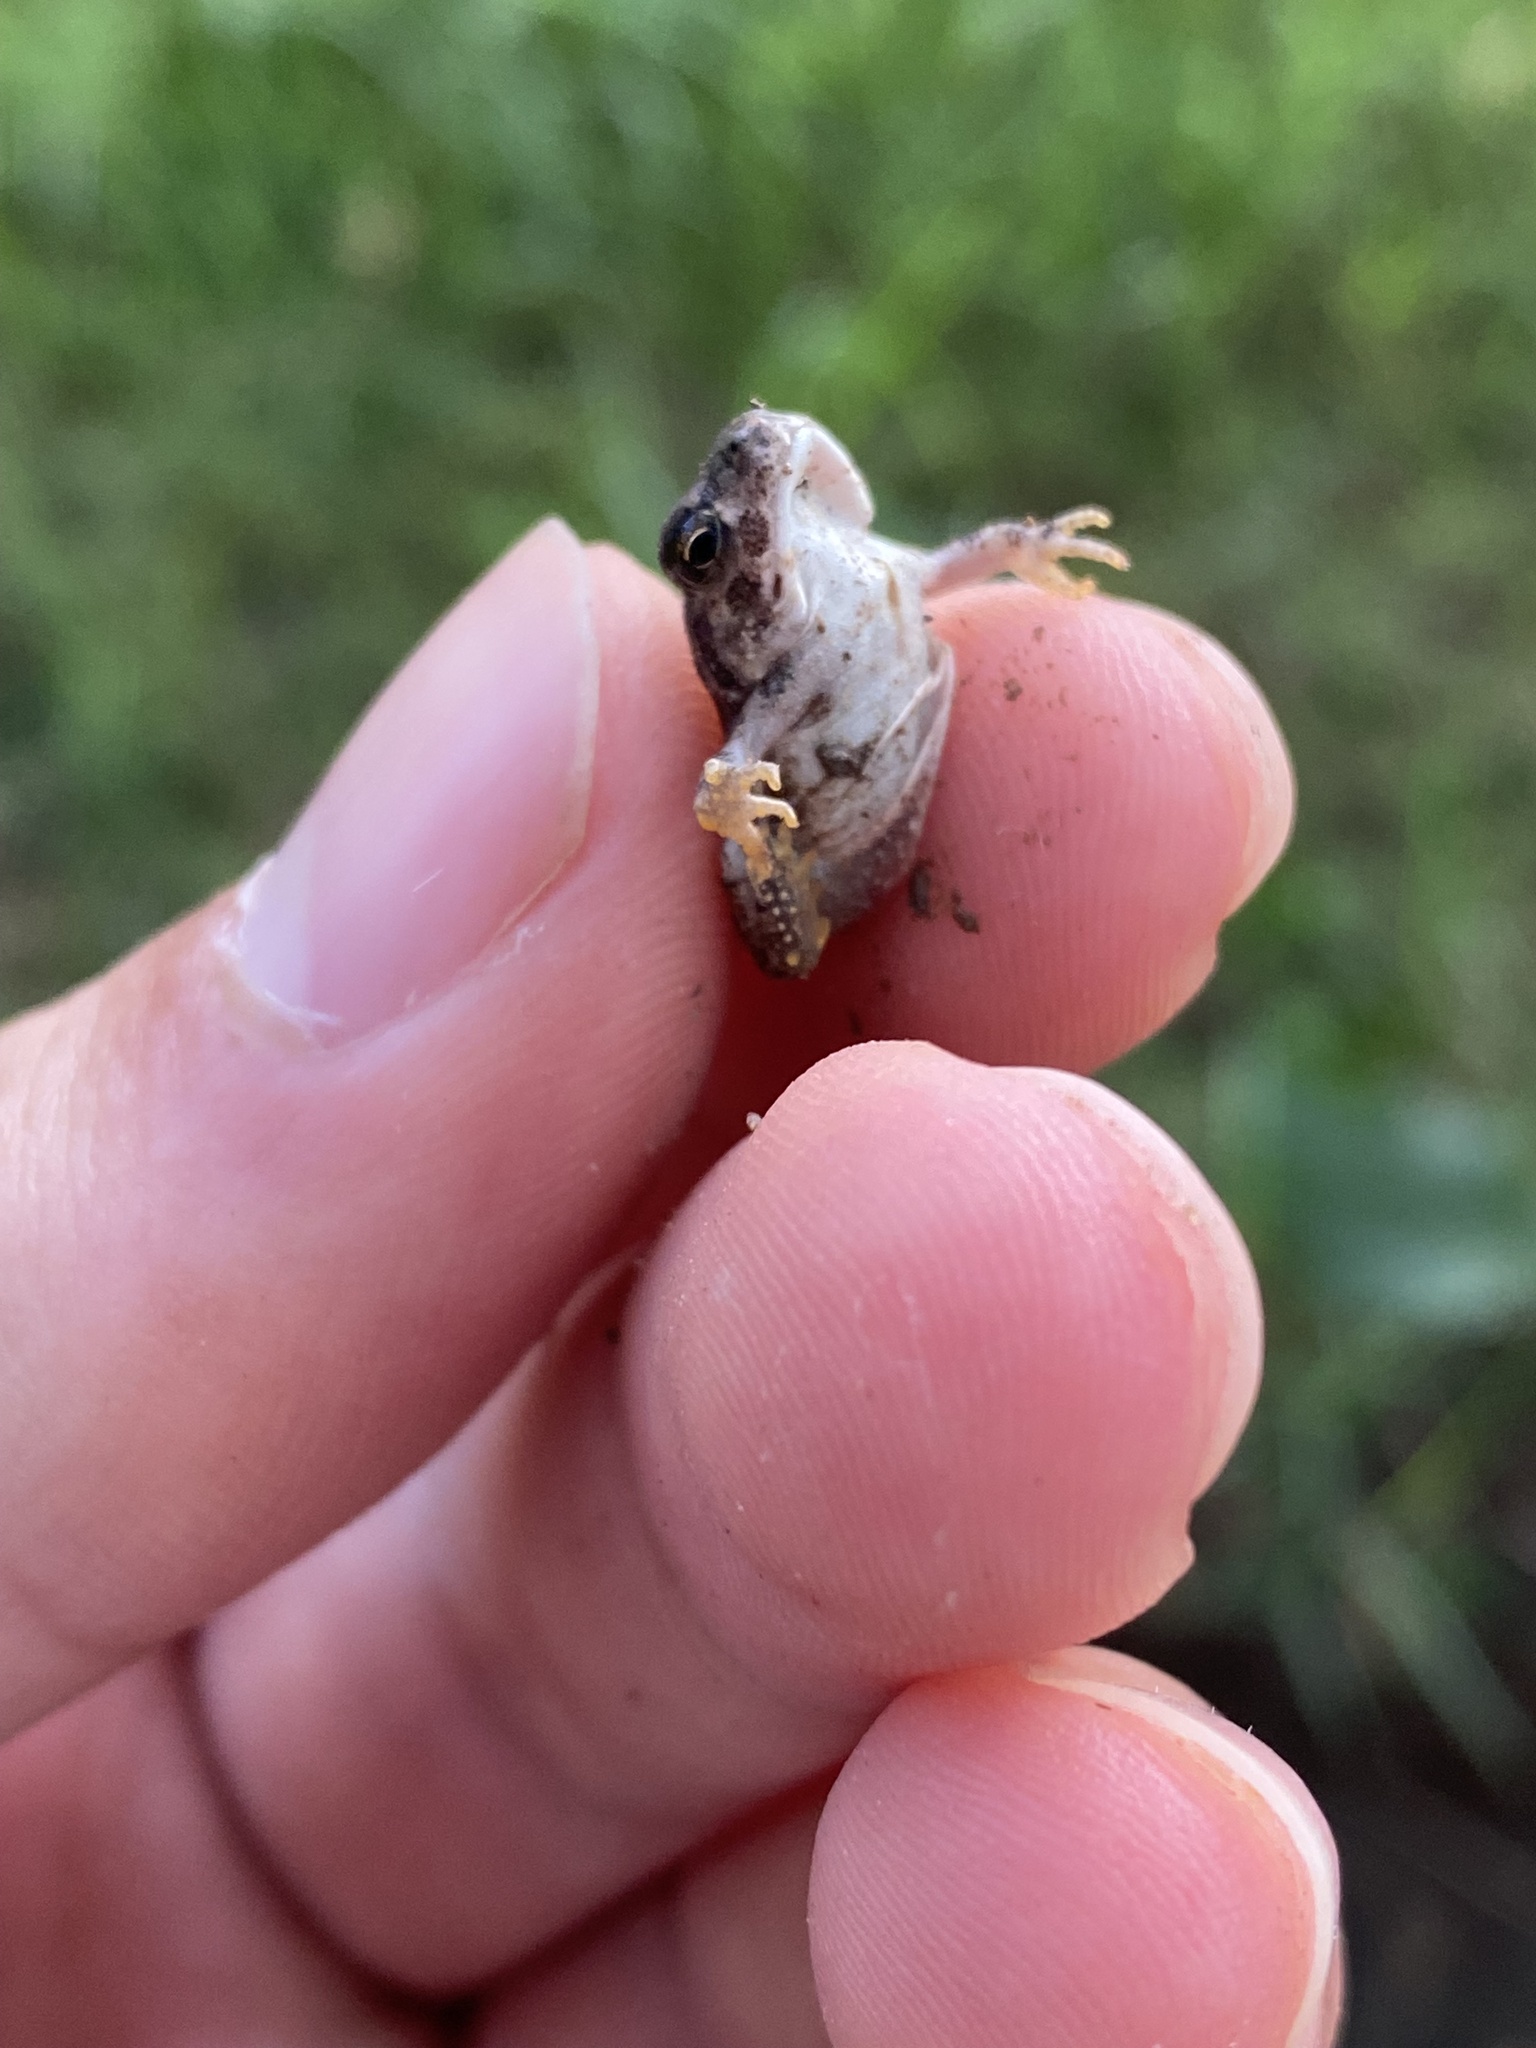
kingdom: Animalia
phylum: Chordata
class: Amphibia
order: Anura
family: Bufonidae
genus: Anaxyrus
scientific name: Anaxyrus woodhousii
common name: Woodhouse's toad
